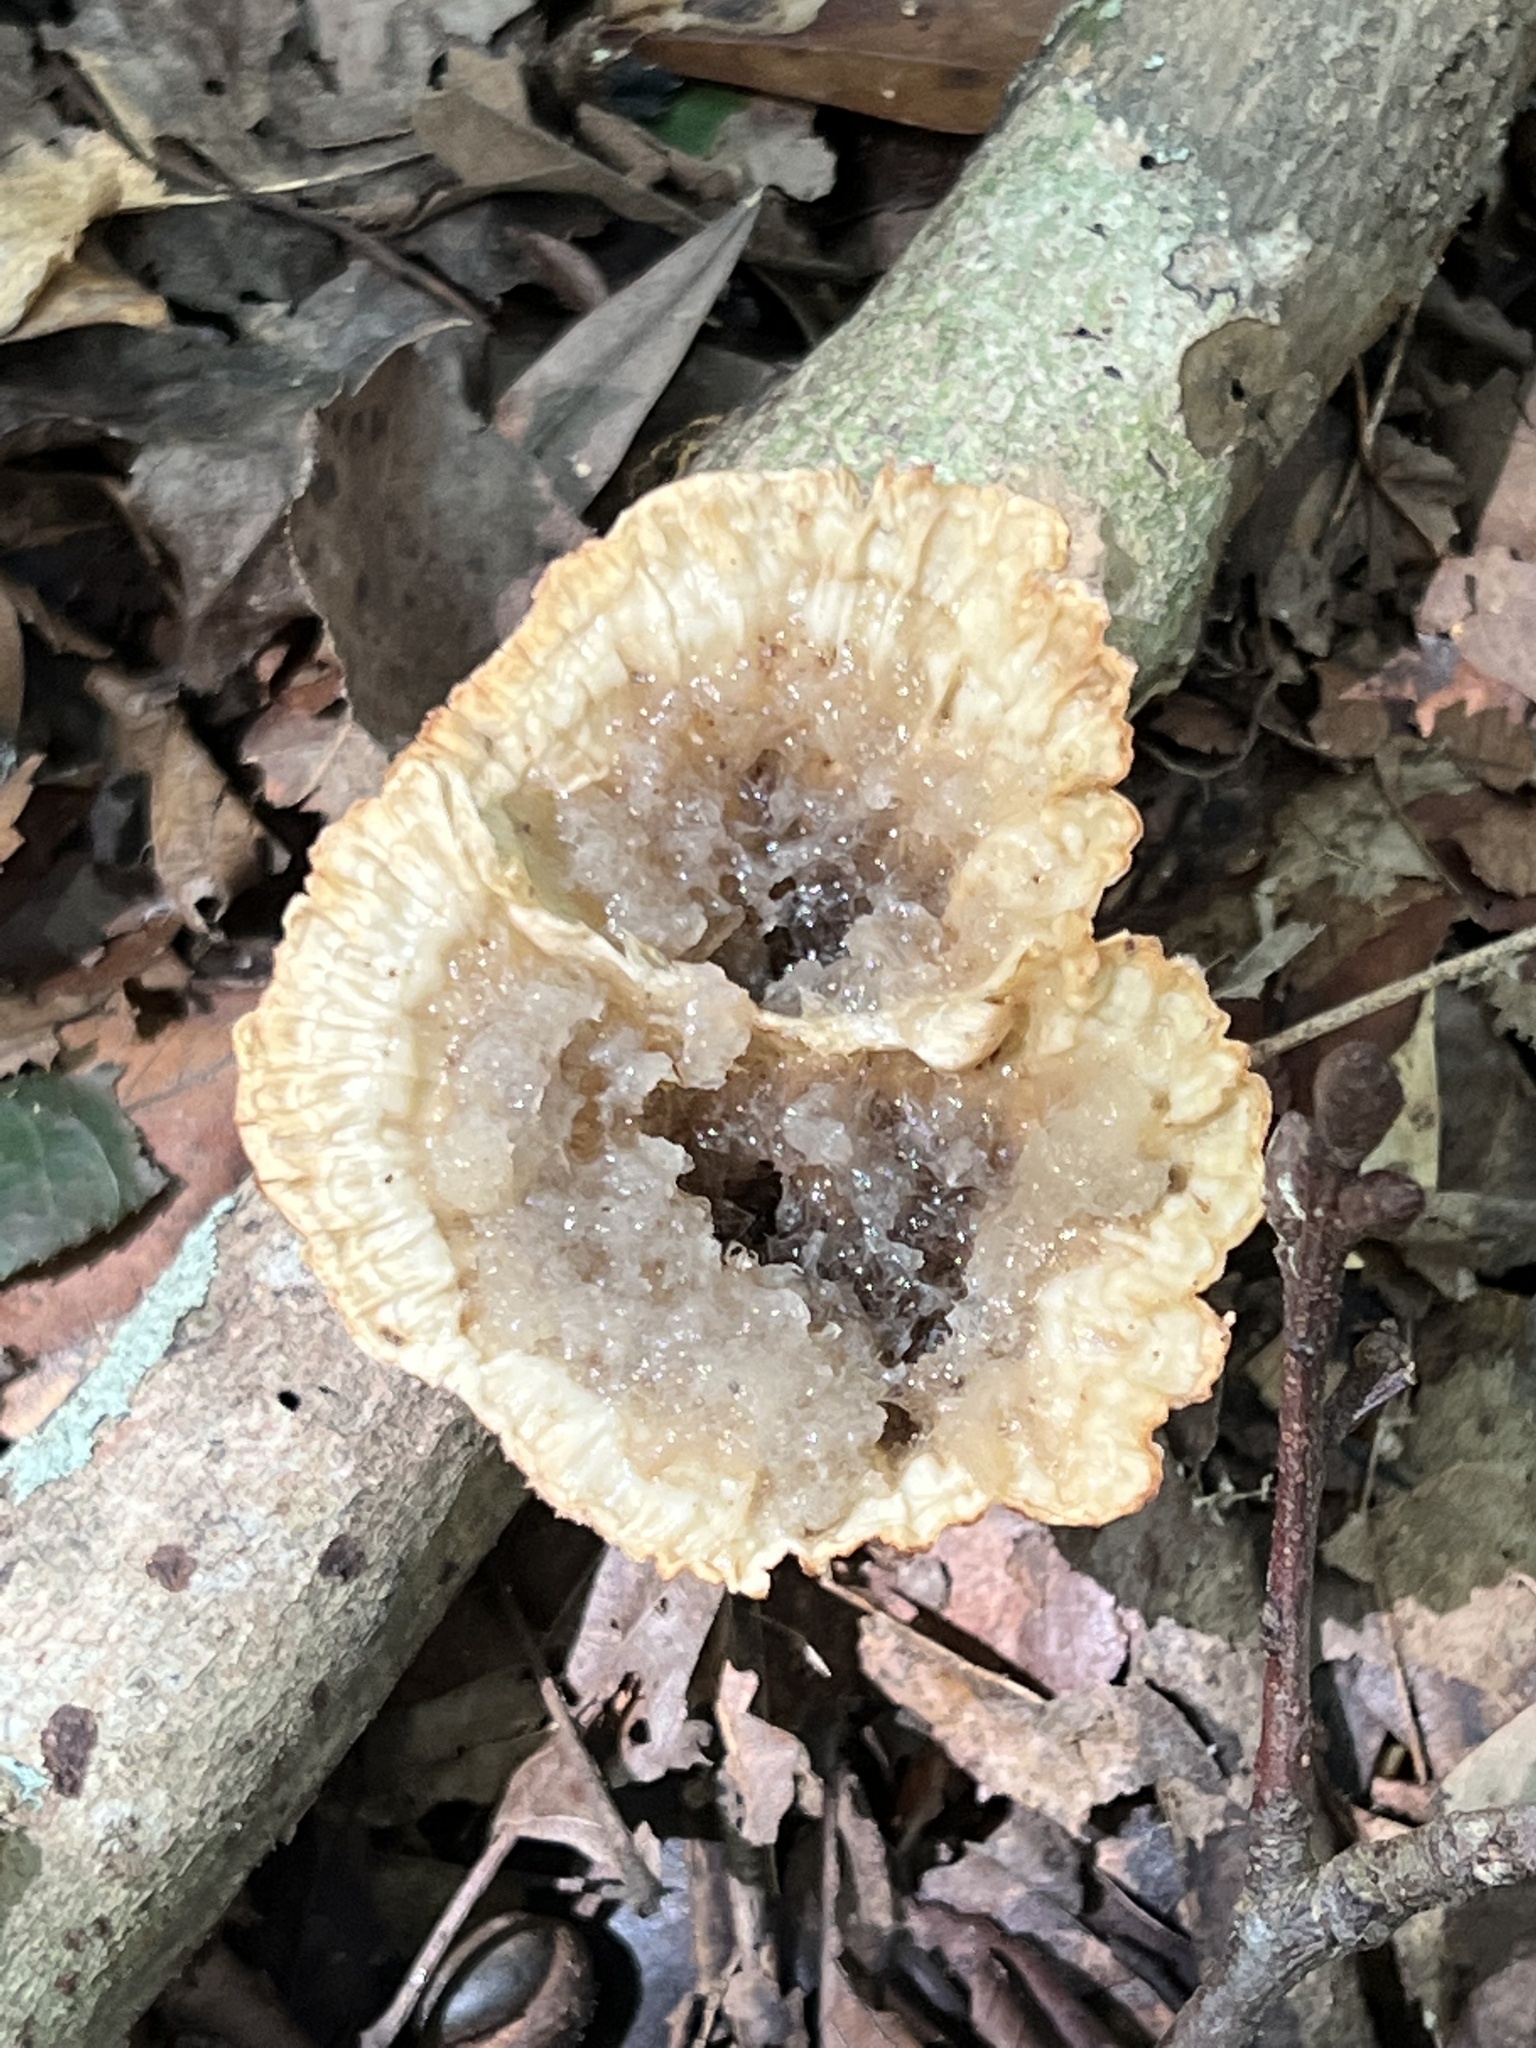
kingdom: Fungi
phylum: Basidiomycota
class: Agaricomycetes
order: Polyporales
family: Panaceae
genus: Cymatoderma
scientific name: Cymatoderma caperatum
